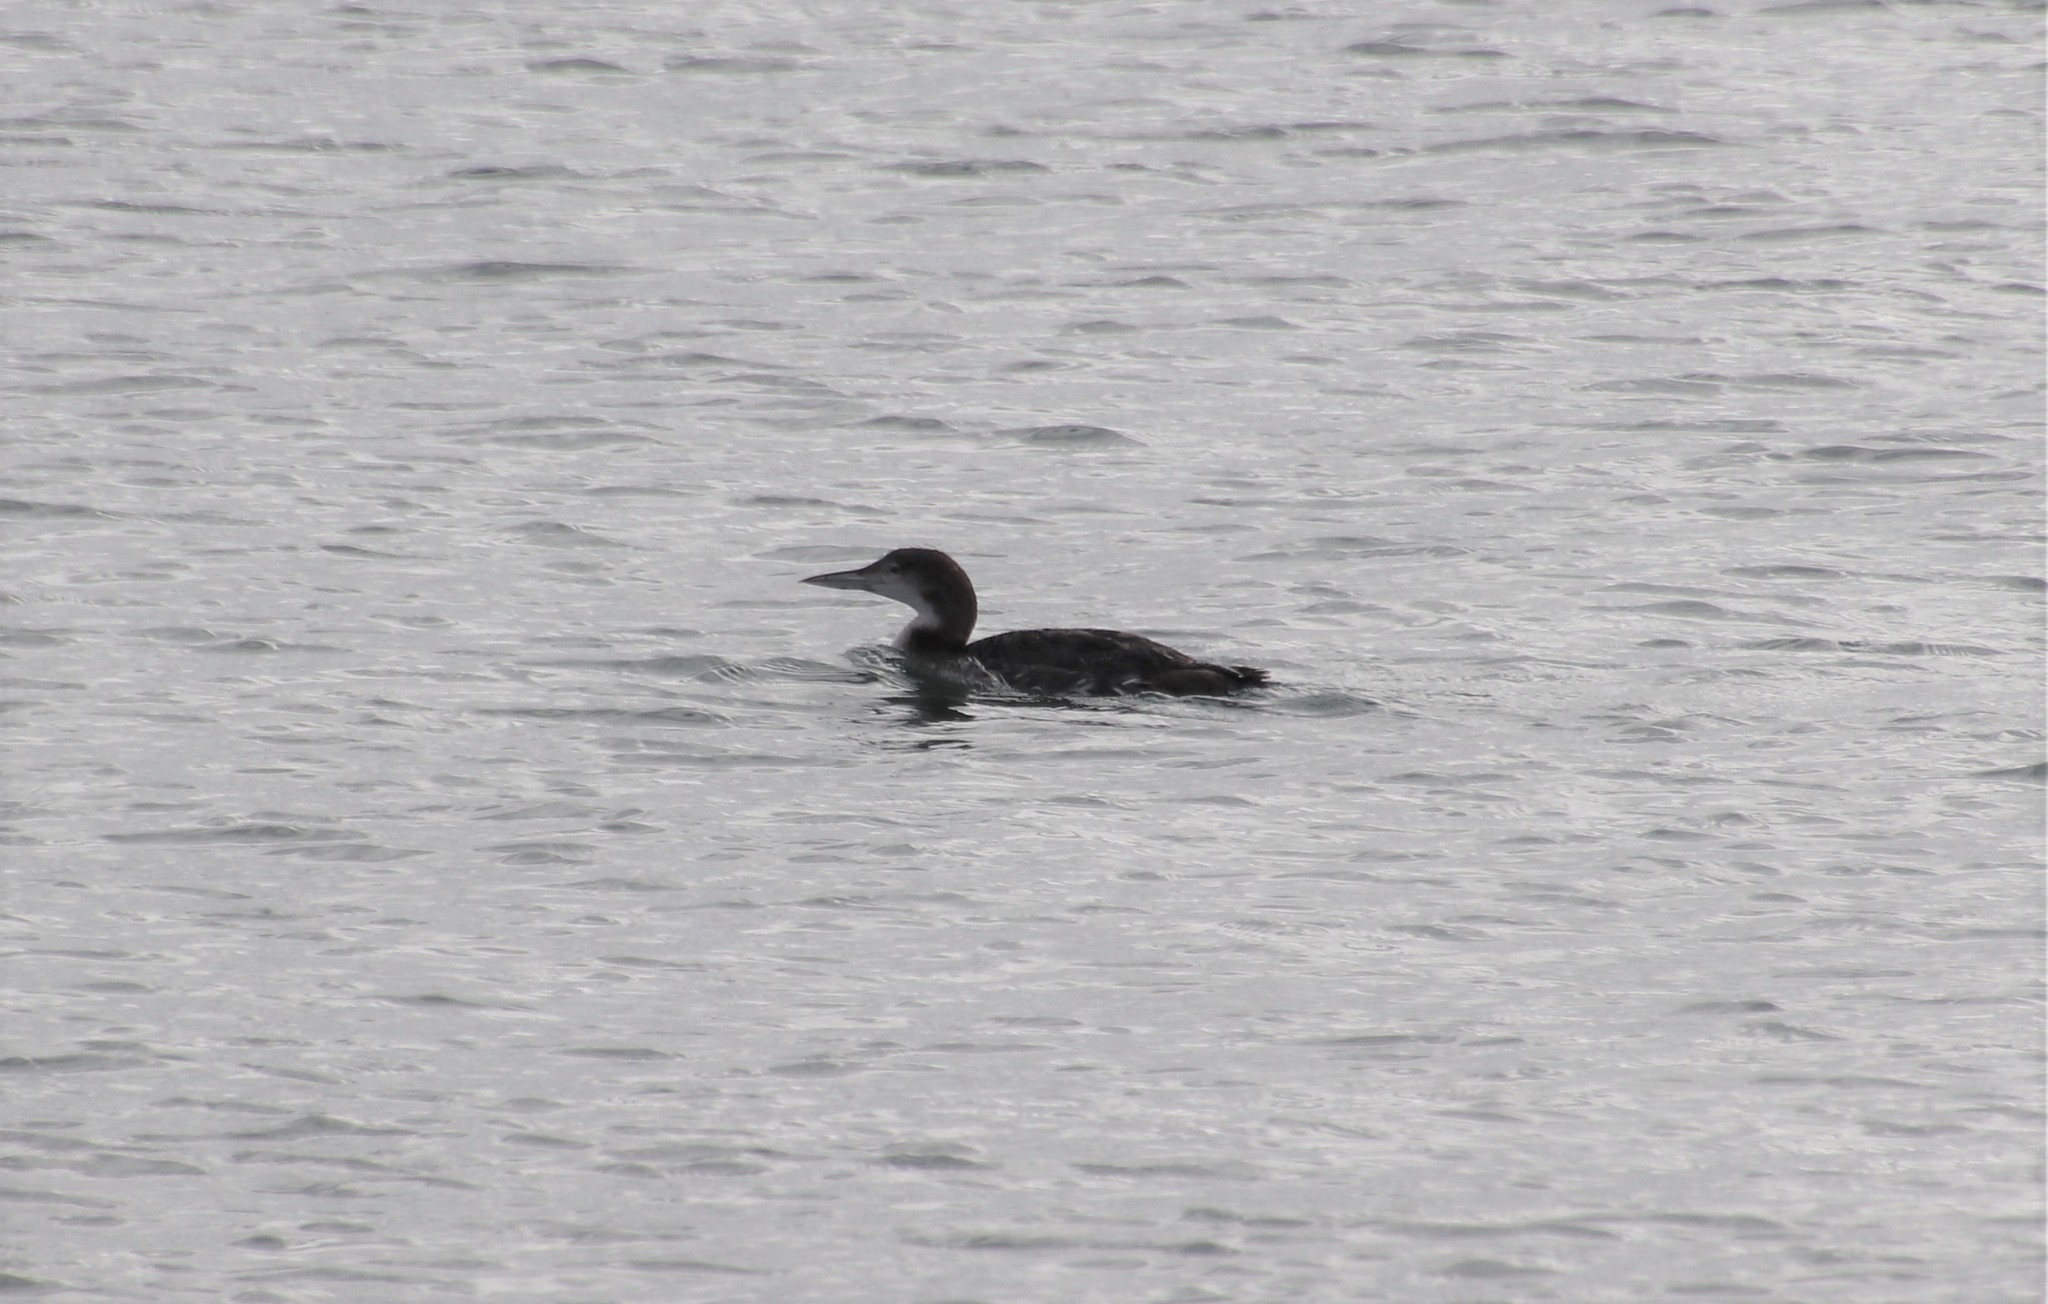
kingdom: Animalia
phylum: Chordata
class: Aves
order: Gaviiformes
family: Gaviidae
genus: Gavia
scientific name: Gavia immer
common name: Common loon
